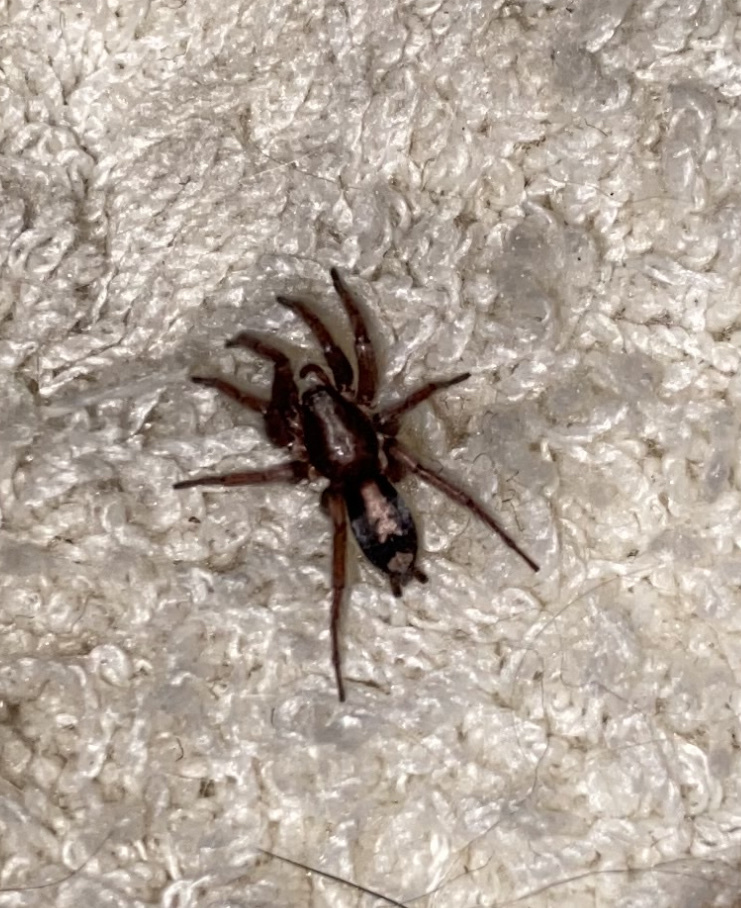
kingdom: Animalia
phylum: Arthropoda
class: Arachnida
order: Araneae
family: Gnaphosidae
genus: Herpyllus
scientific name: Herpyllus ecclesiasticus
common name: Eastern parson spider
